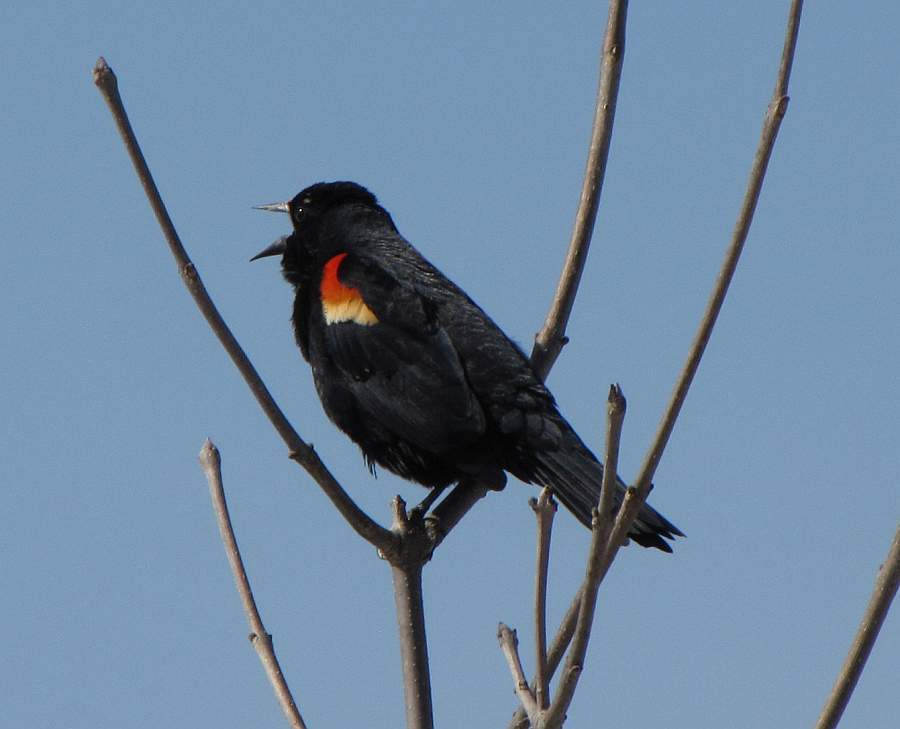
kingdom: Animalia
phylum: Chordata
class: Aves
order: Passeriformes
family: Icteridae
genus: Agelaius
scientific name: Agelaius phoeniceus
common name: Red-winged blackbird
